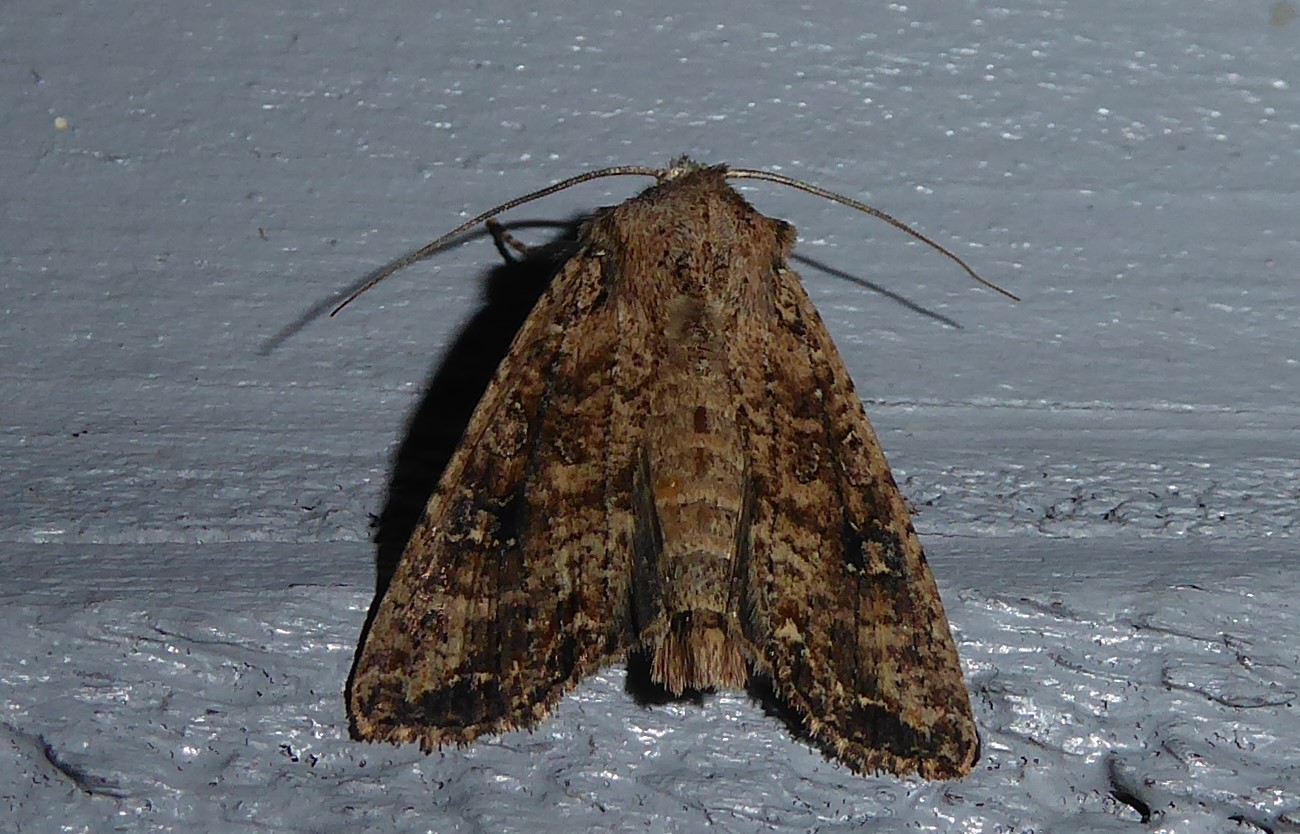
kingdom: Animalia
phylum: Arthropoda
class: Insecta
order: Lepidoptera
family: Noctuidae
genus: Ichneutica
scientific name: Ichneutica morosa
